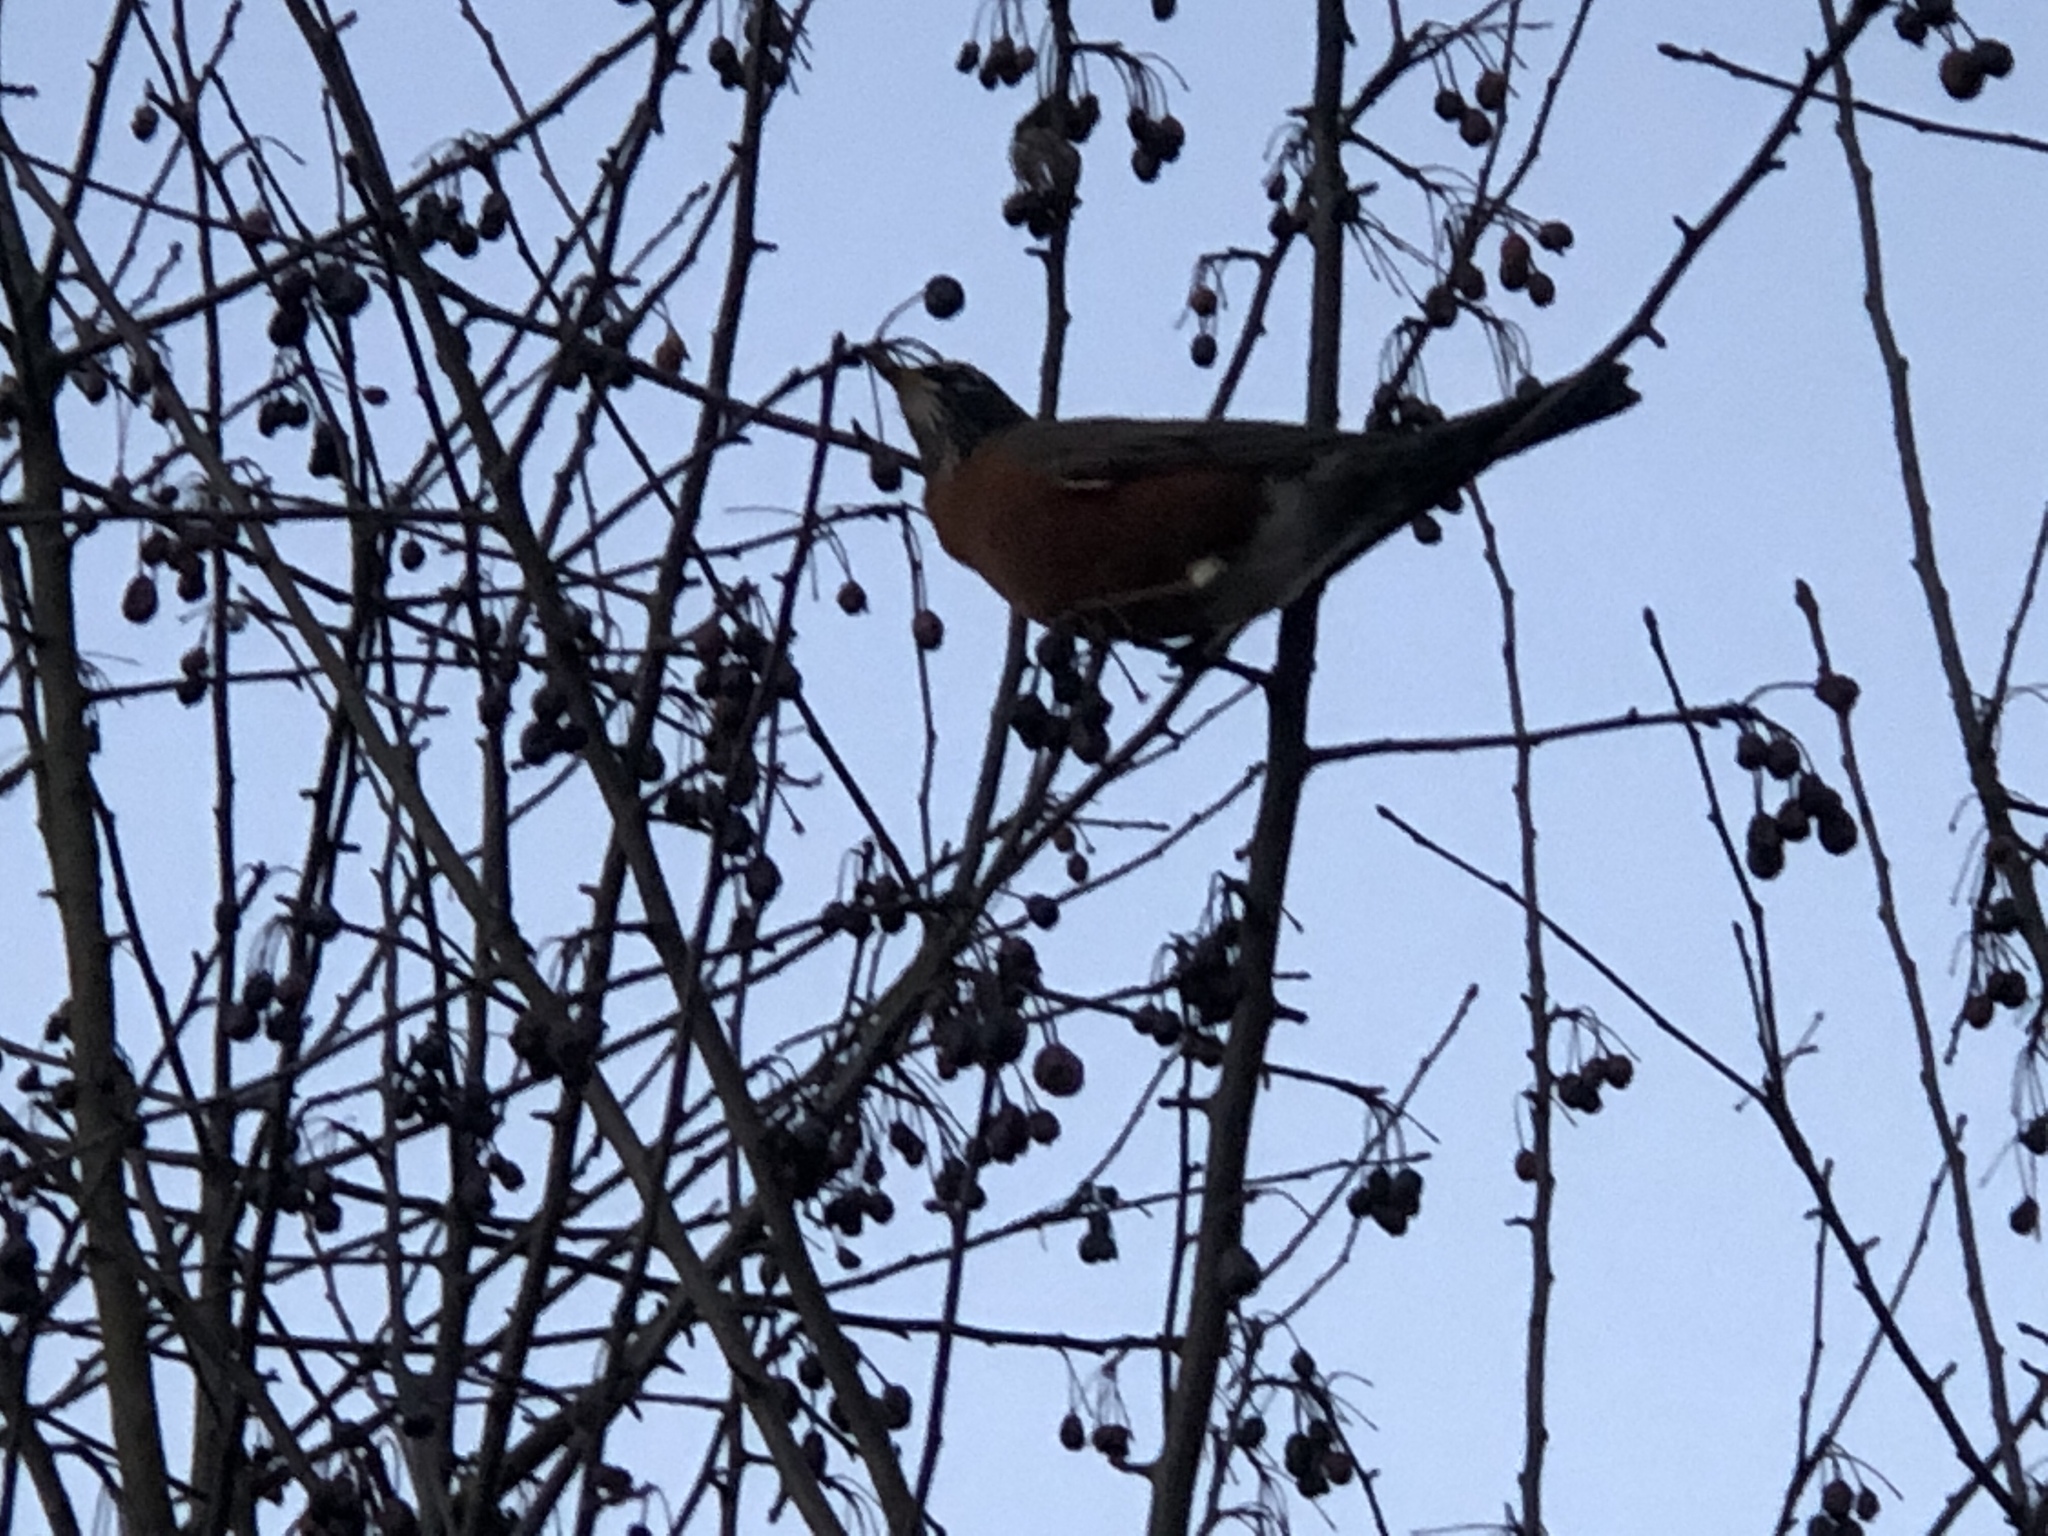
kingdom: Animalia
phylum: Chordata
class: Aves
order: Passeriformes
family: Turdidae
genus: Turdus
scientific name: Turdus migratorius
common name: American robin
